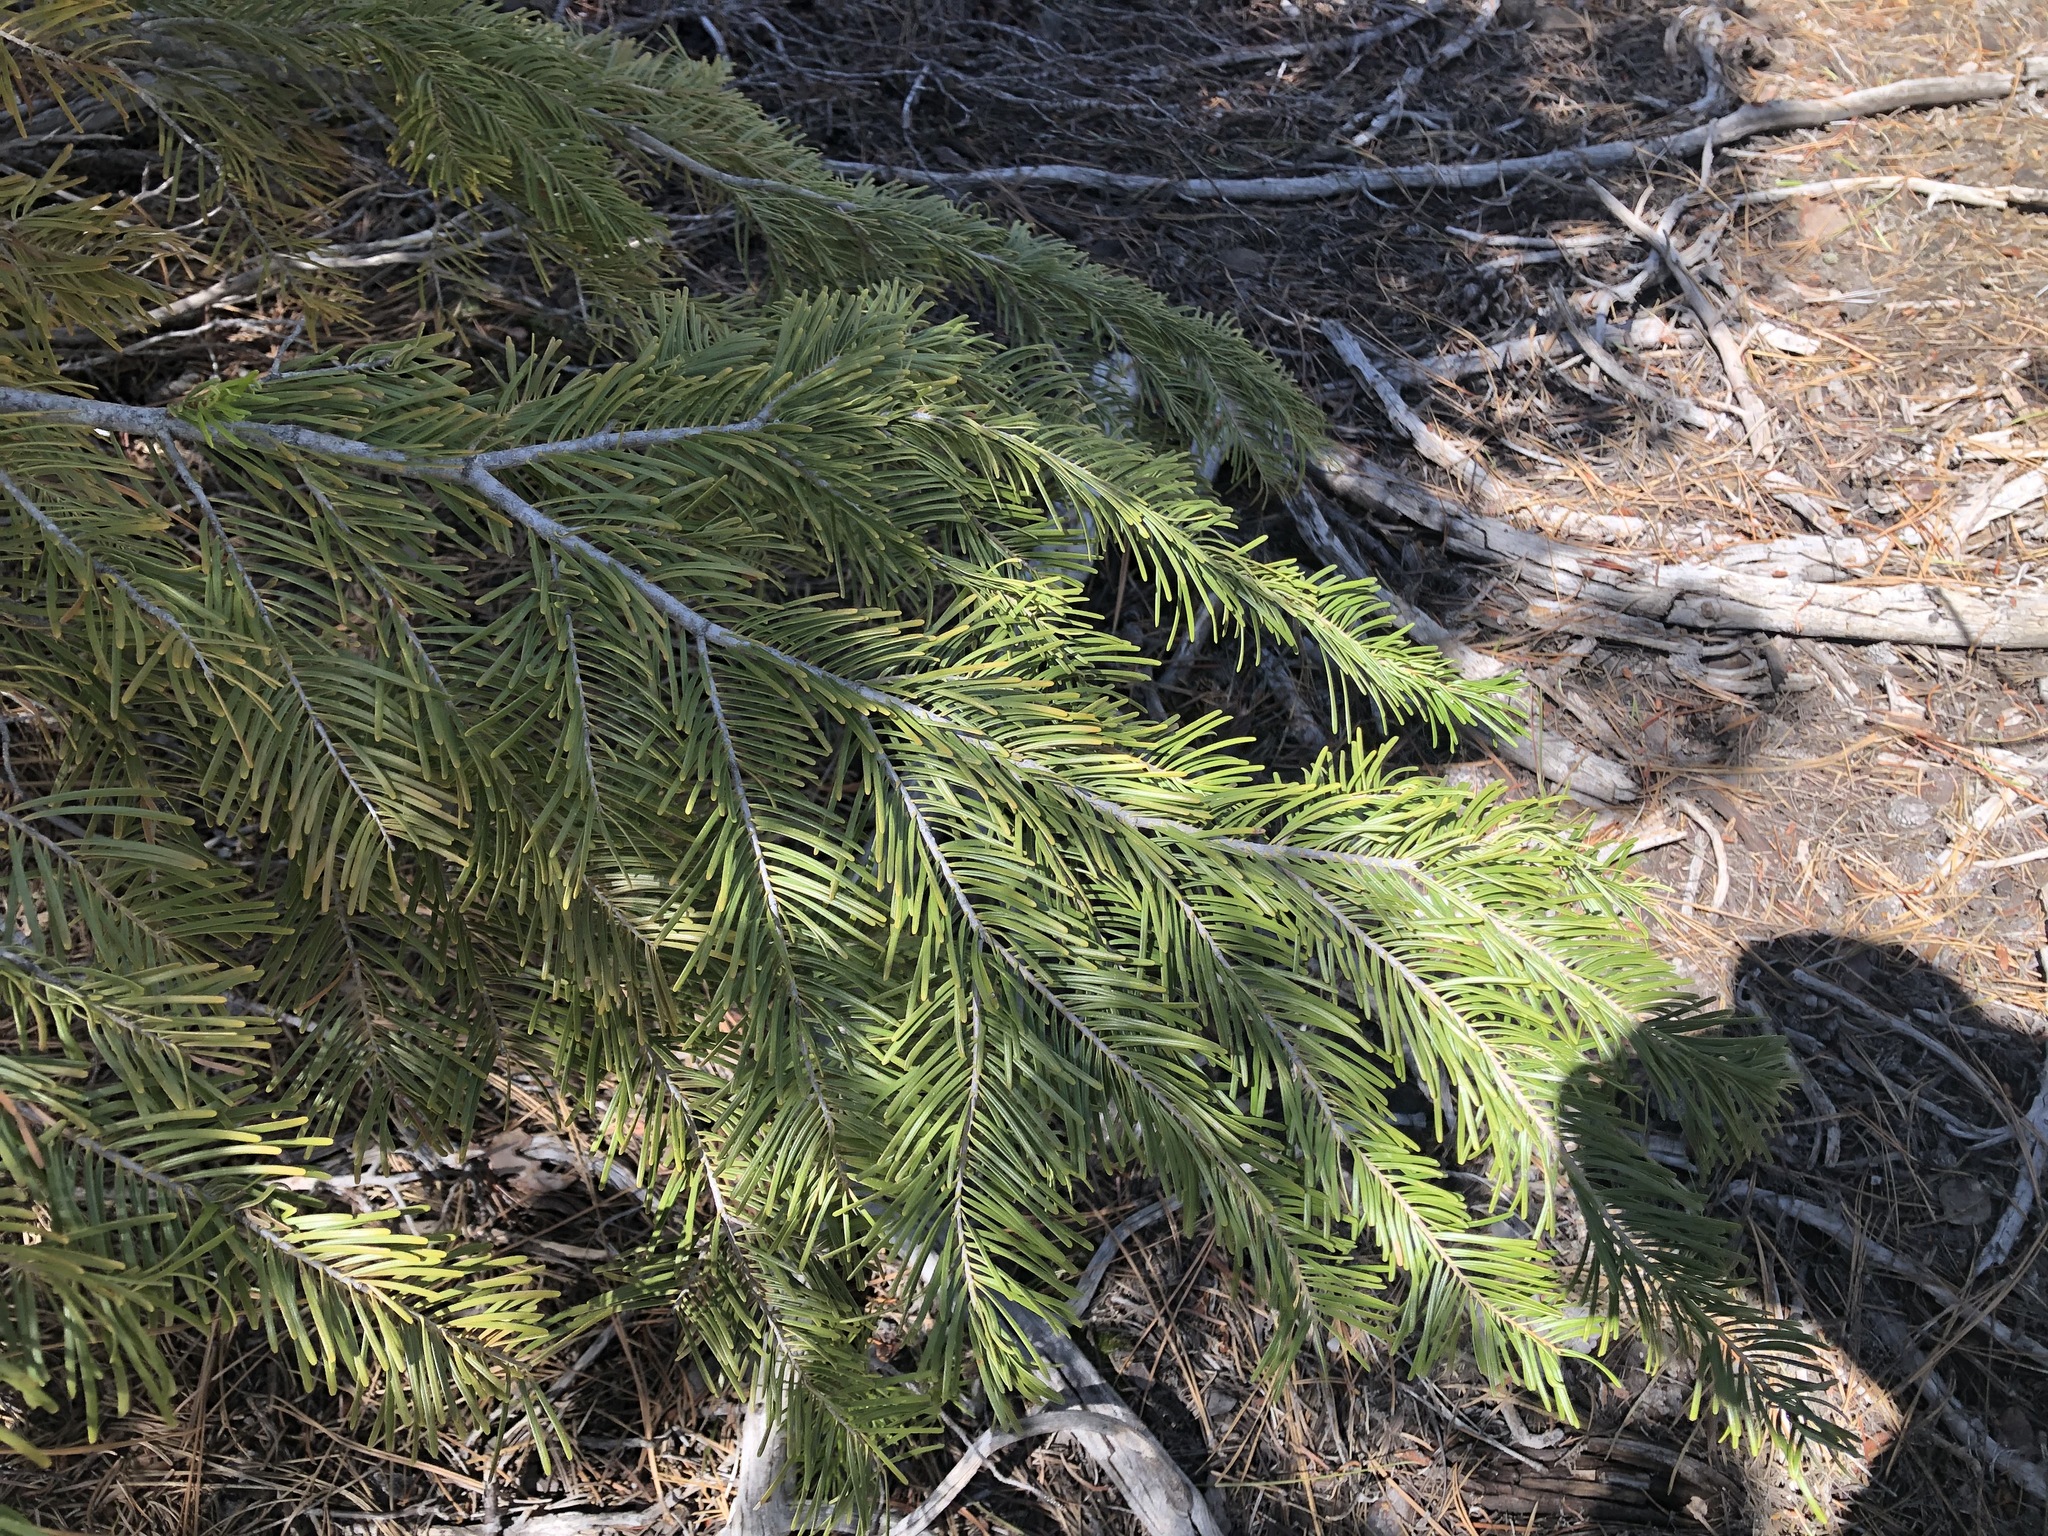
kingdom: Plantae
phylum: Tracheophyta
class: Pinopsida
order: Pinales
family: Pinaceae
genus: Abies
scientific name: Abies grandis
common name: Giant fir
